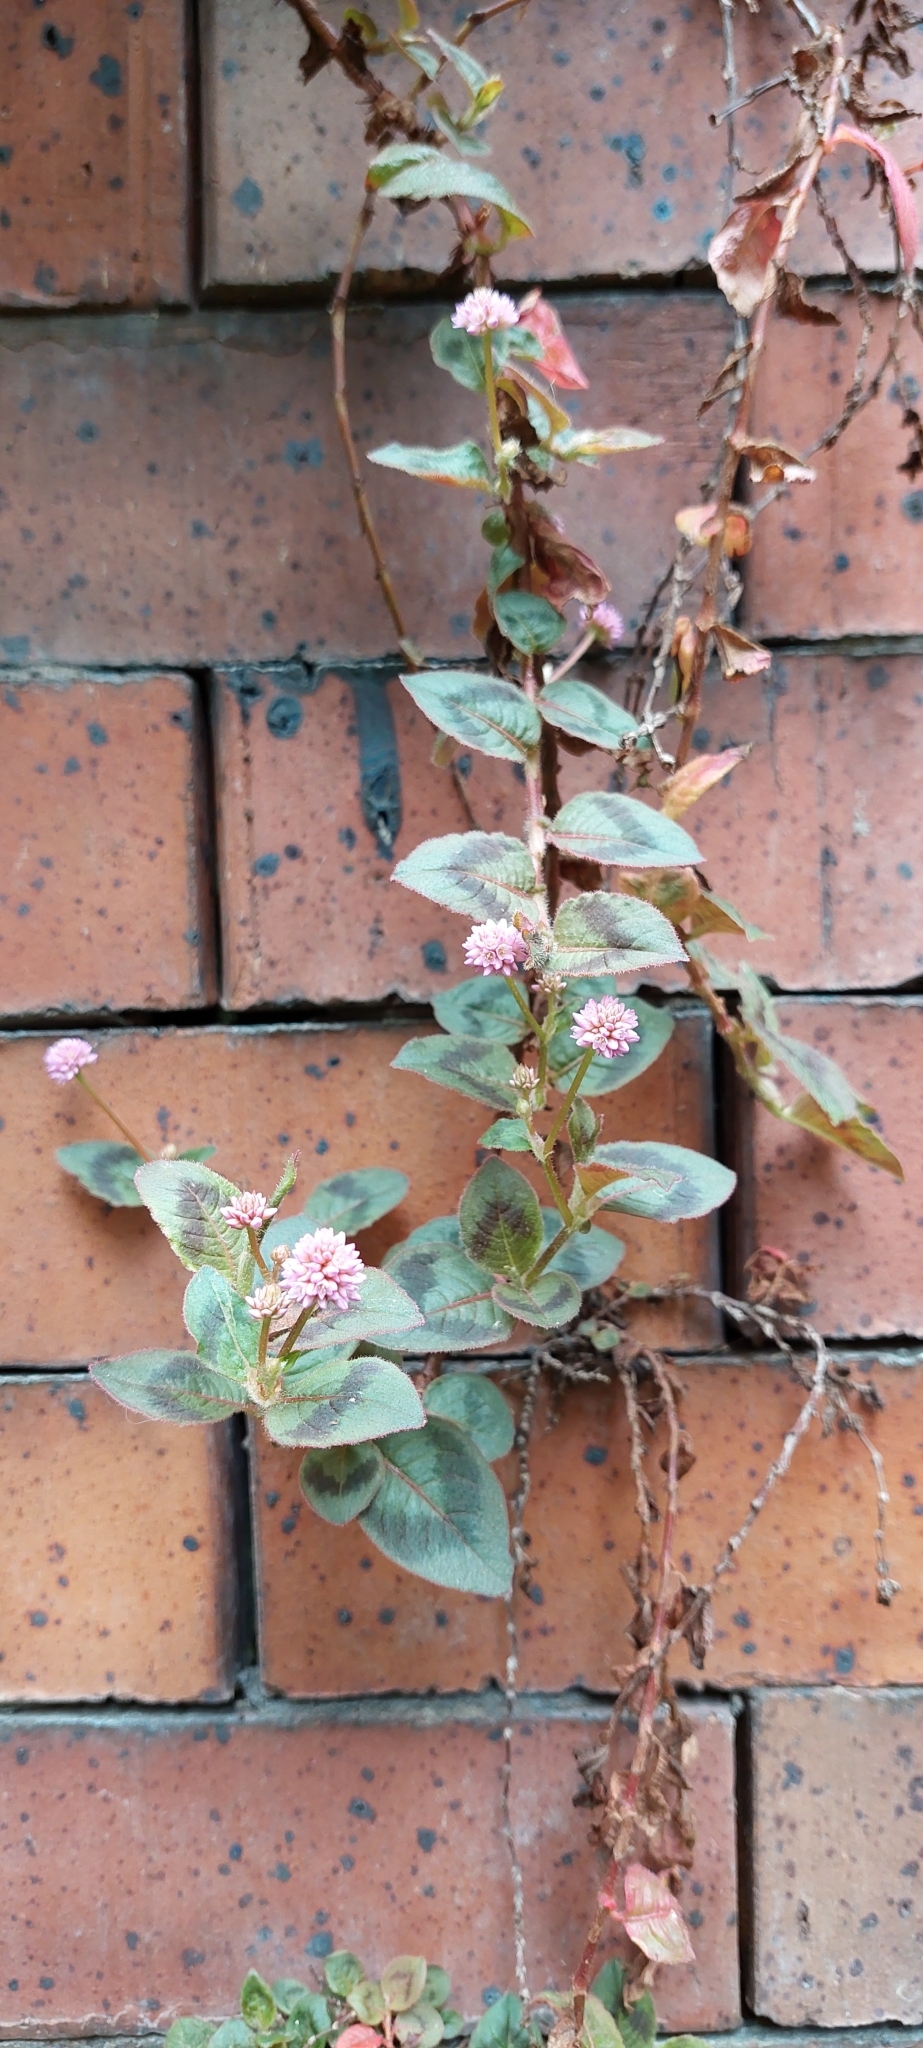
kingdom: Plantae
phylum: Tracheophyta
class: Magnoliopsida
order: Caryophyllales
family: Polygonaceae
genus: Persicaria
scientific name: Persicaria capitata
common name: Pinkhead smartweed
